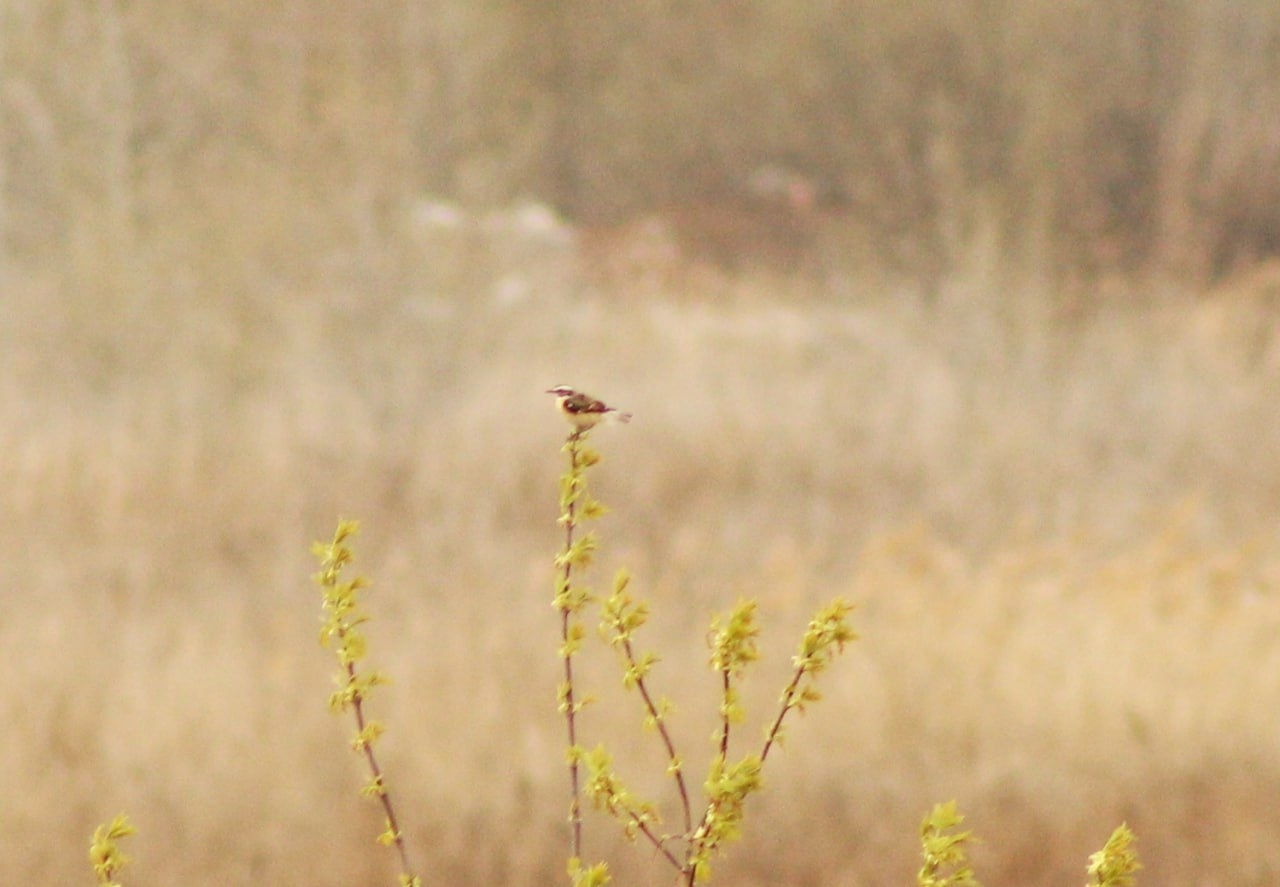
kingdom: Animalia
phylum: Chordata
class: Aves
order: Passeriformes
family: Muscicapidae
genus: Saxicola
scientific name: Saxicola rubetra
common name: Whinchat
